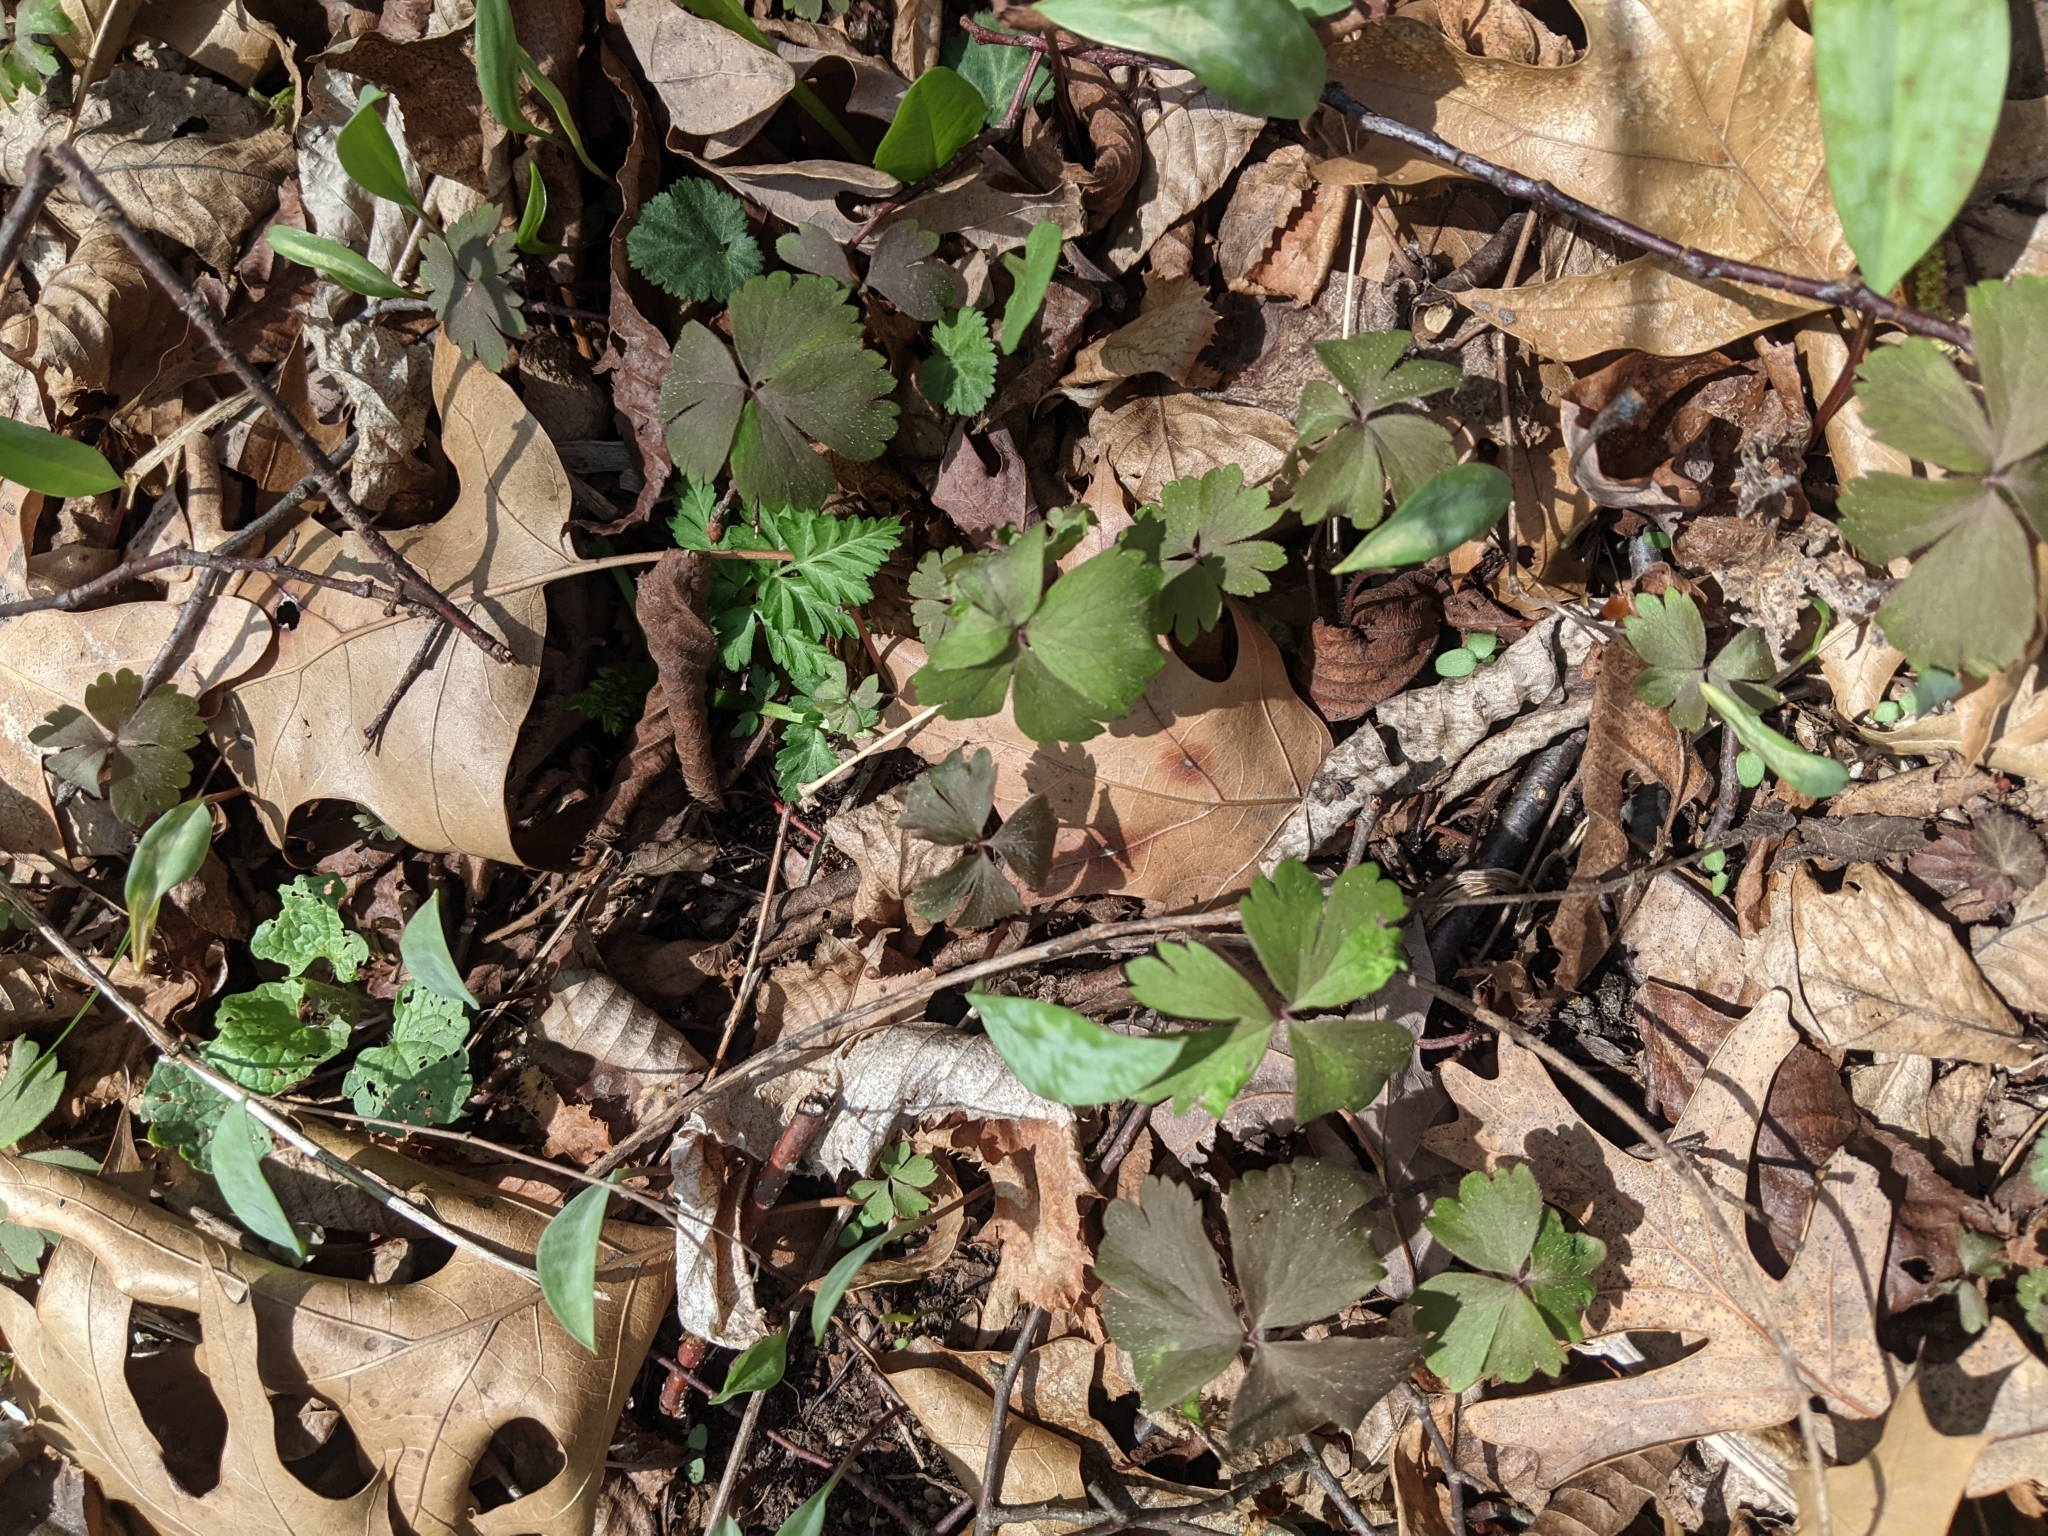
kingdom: Plantae
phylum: Tracheophyta
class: Magnoliopsida
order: Ranunculales
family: Ranunculaceae
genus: Anemone
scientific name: Anemone quinquefolia
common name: Wood anemone
